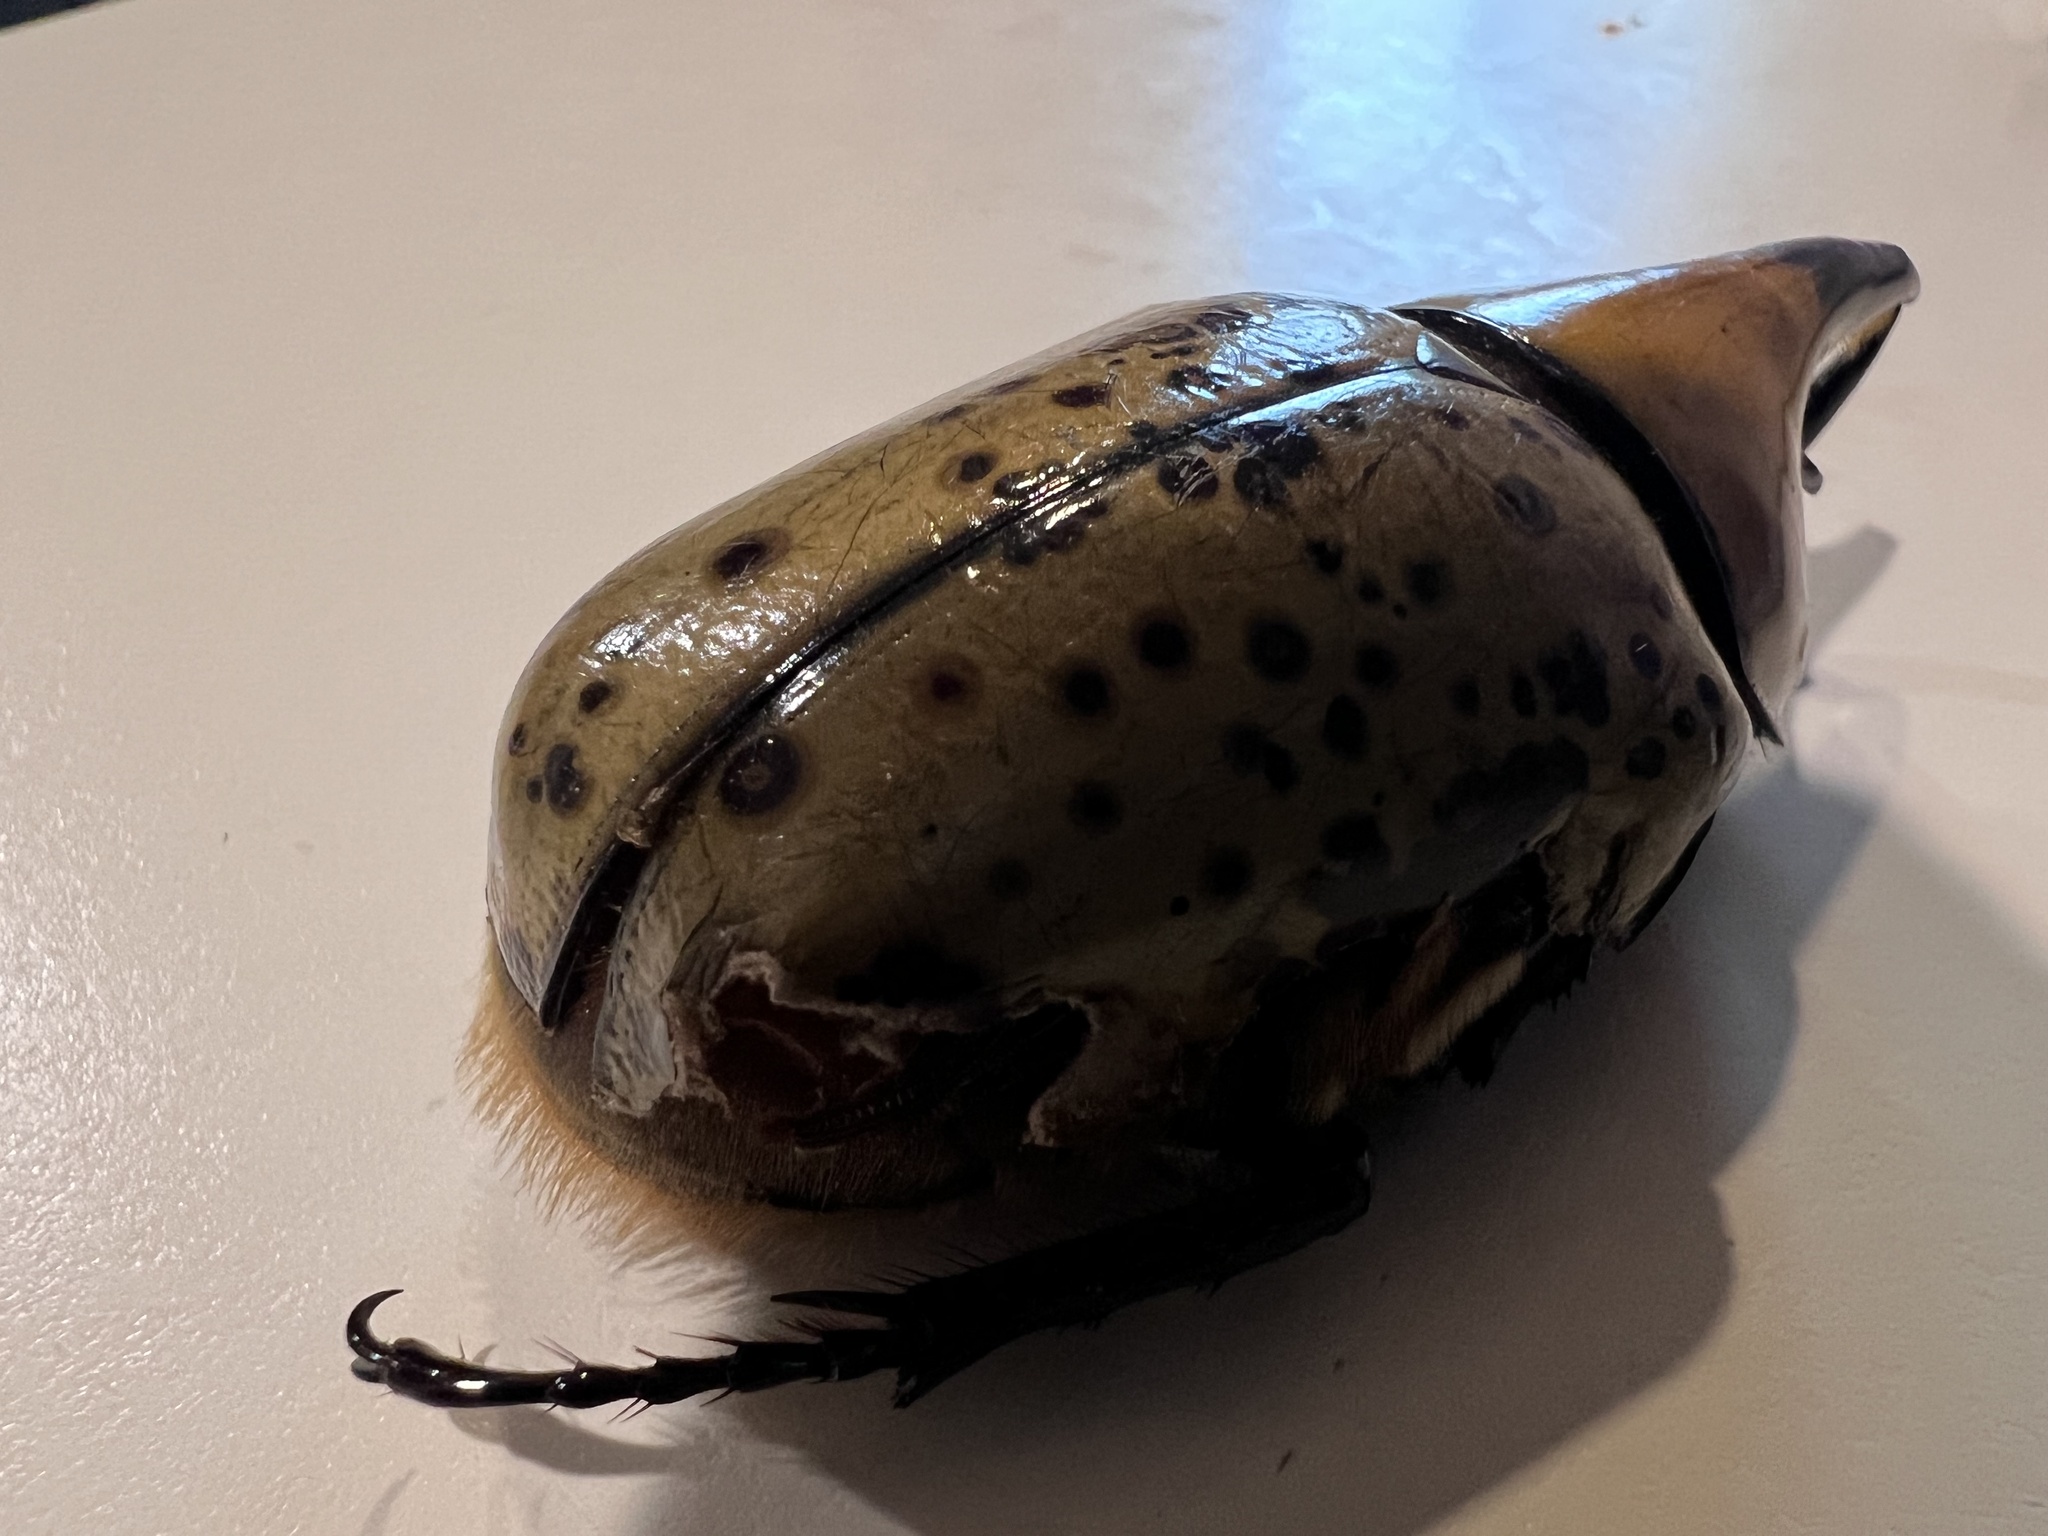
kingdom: Animalia
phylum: Arthropoda
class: Insecta
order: Coleoptera
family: Scarabaeidae
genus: Dynastes
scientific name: Dynastes tityus
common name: Eastern hercules beetle
